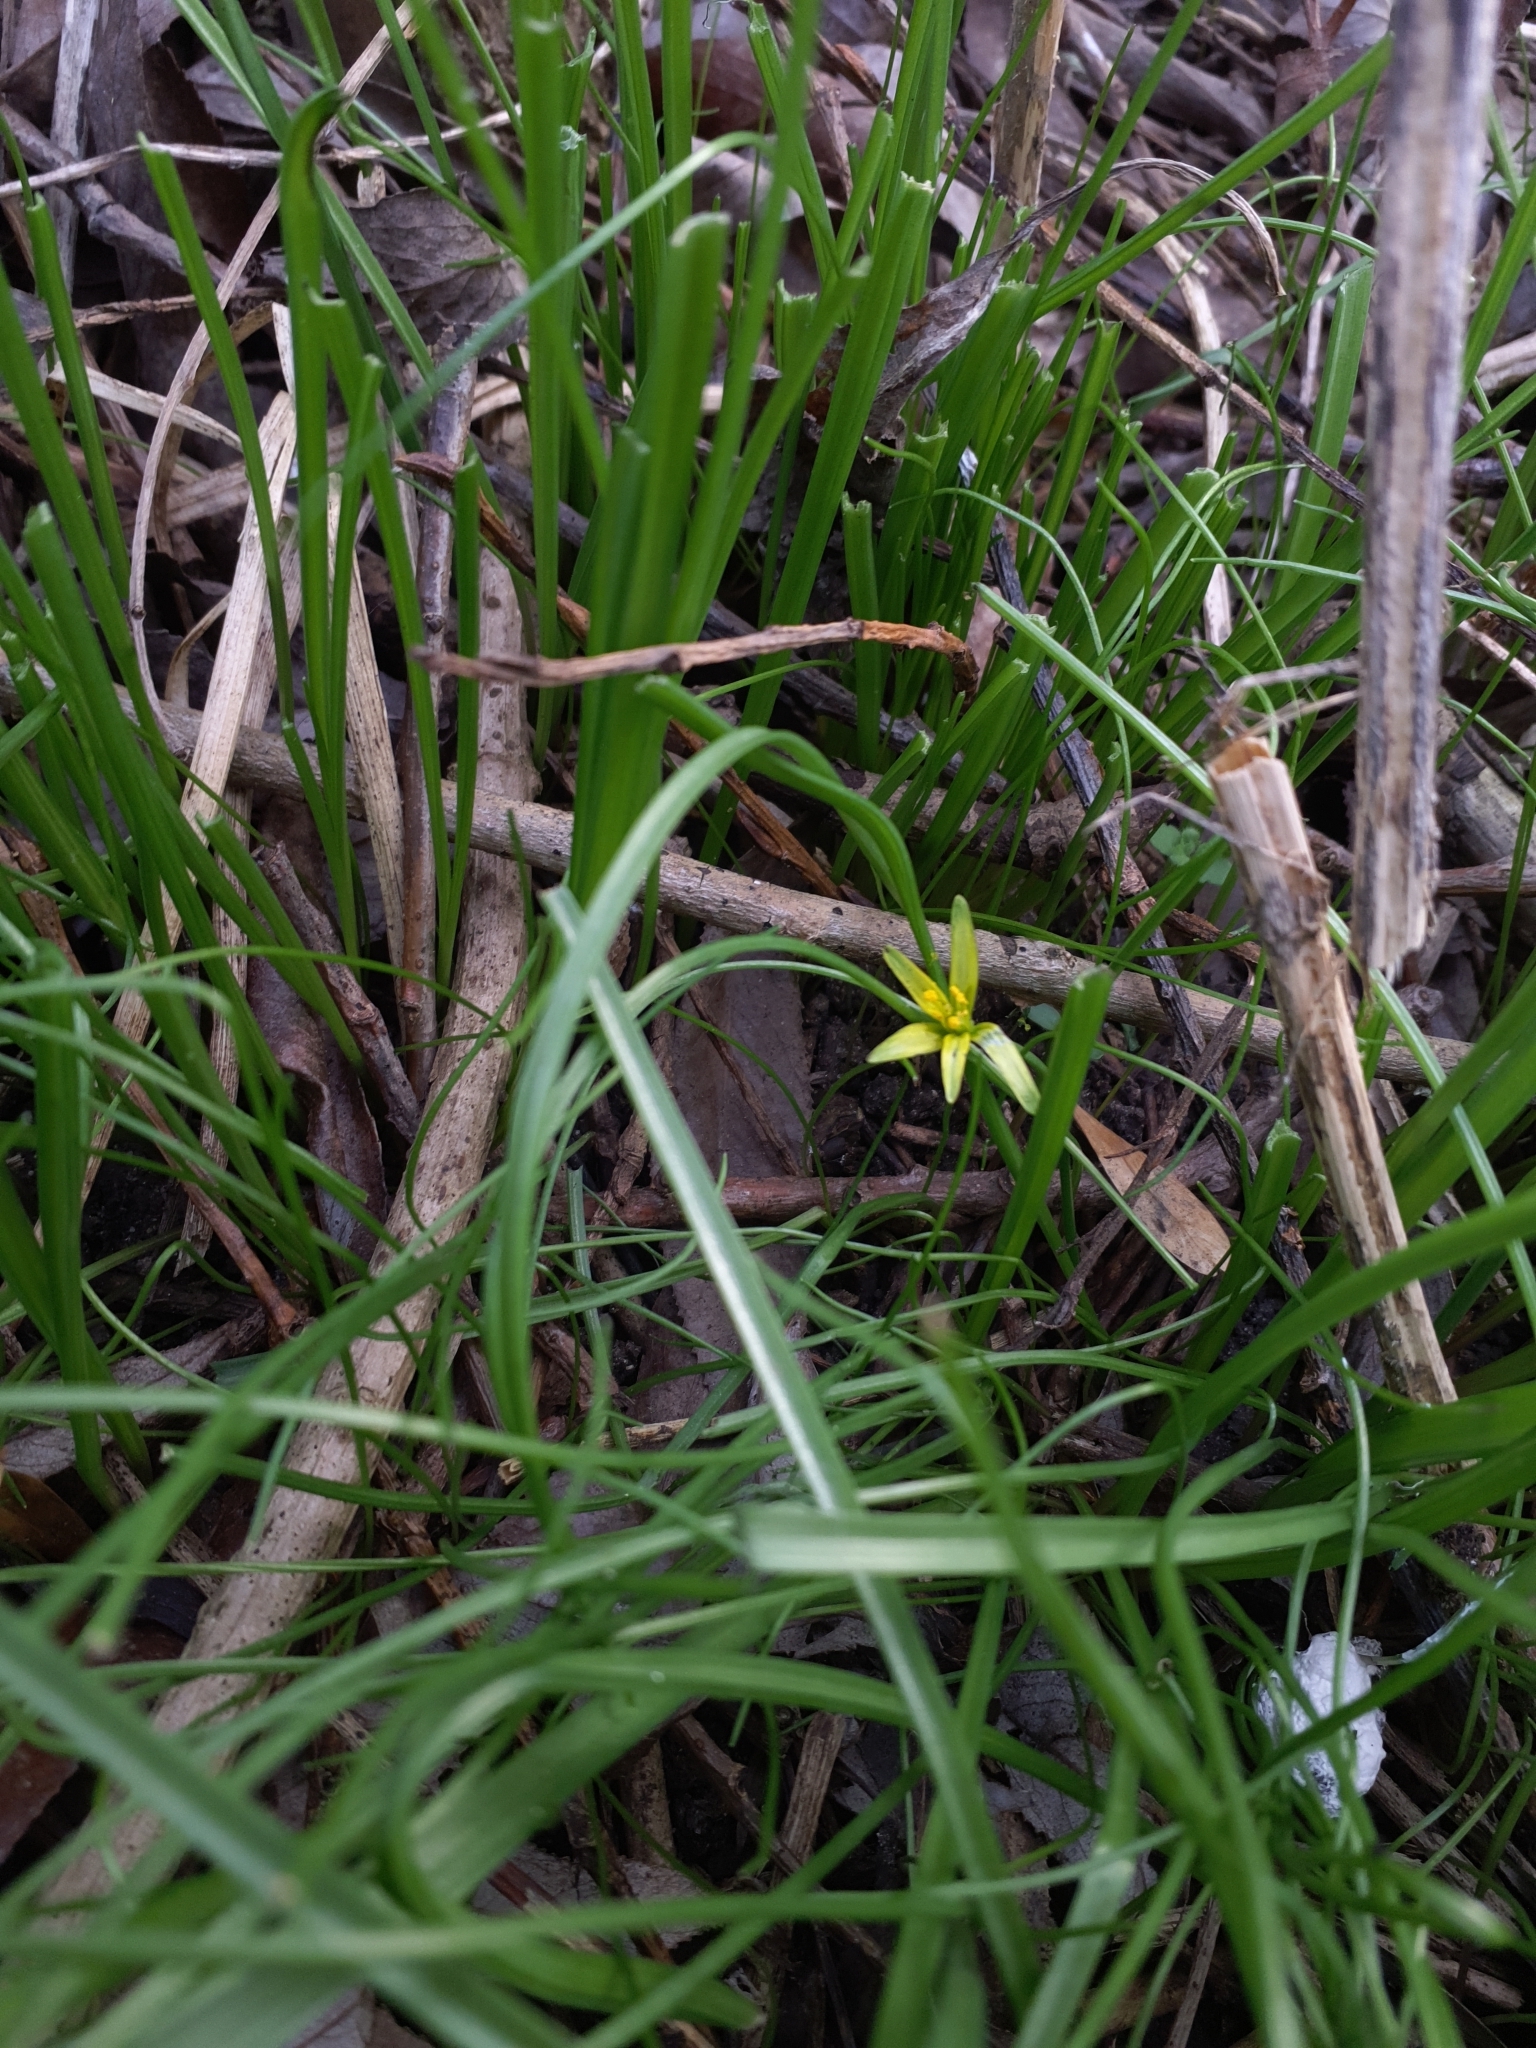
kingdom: Plantae
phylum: Tracheophyta
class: Liliopsida
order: Liliales
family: Liliaceae
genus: Gagea
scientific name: Gagea lutea
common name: Yellow star-of-bethlehem
